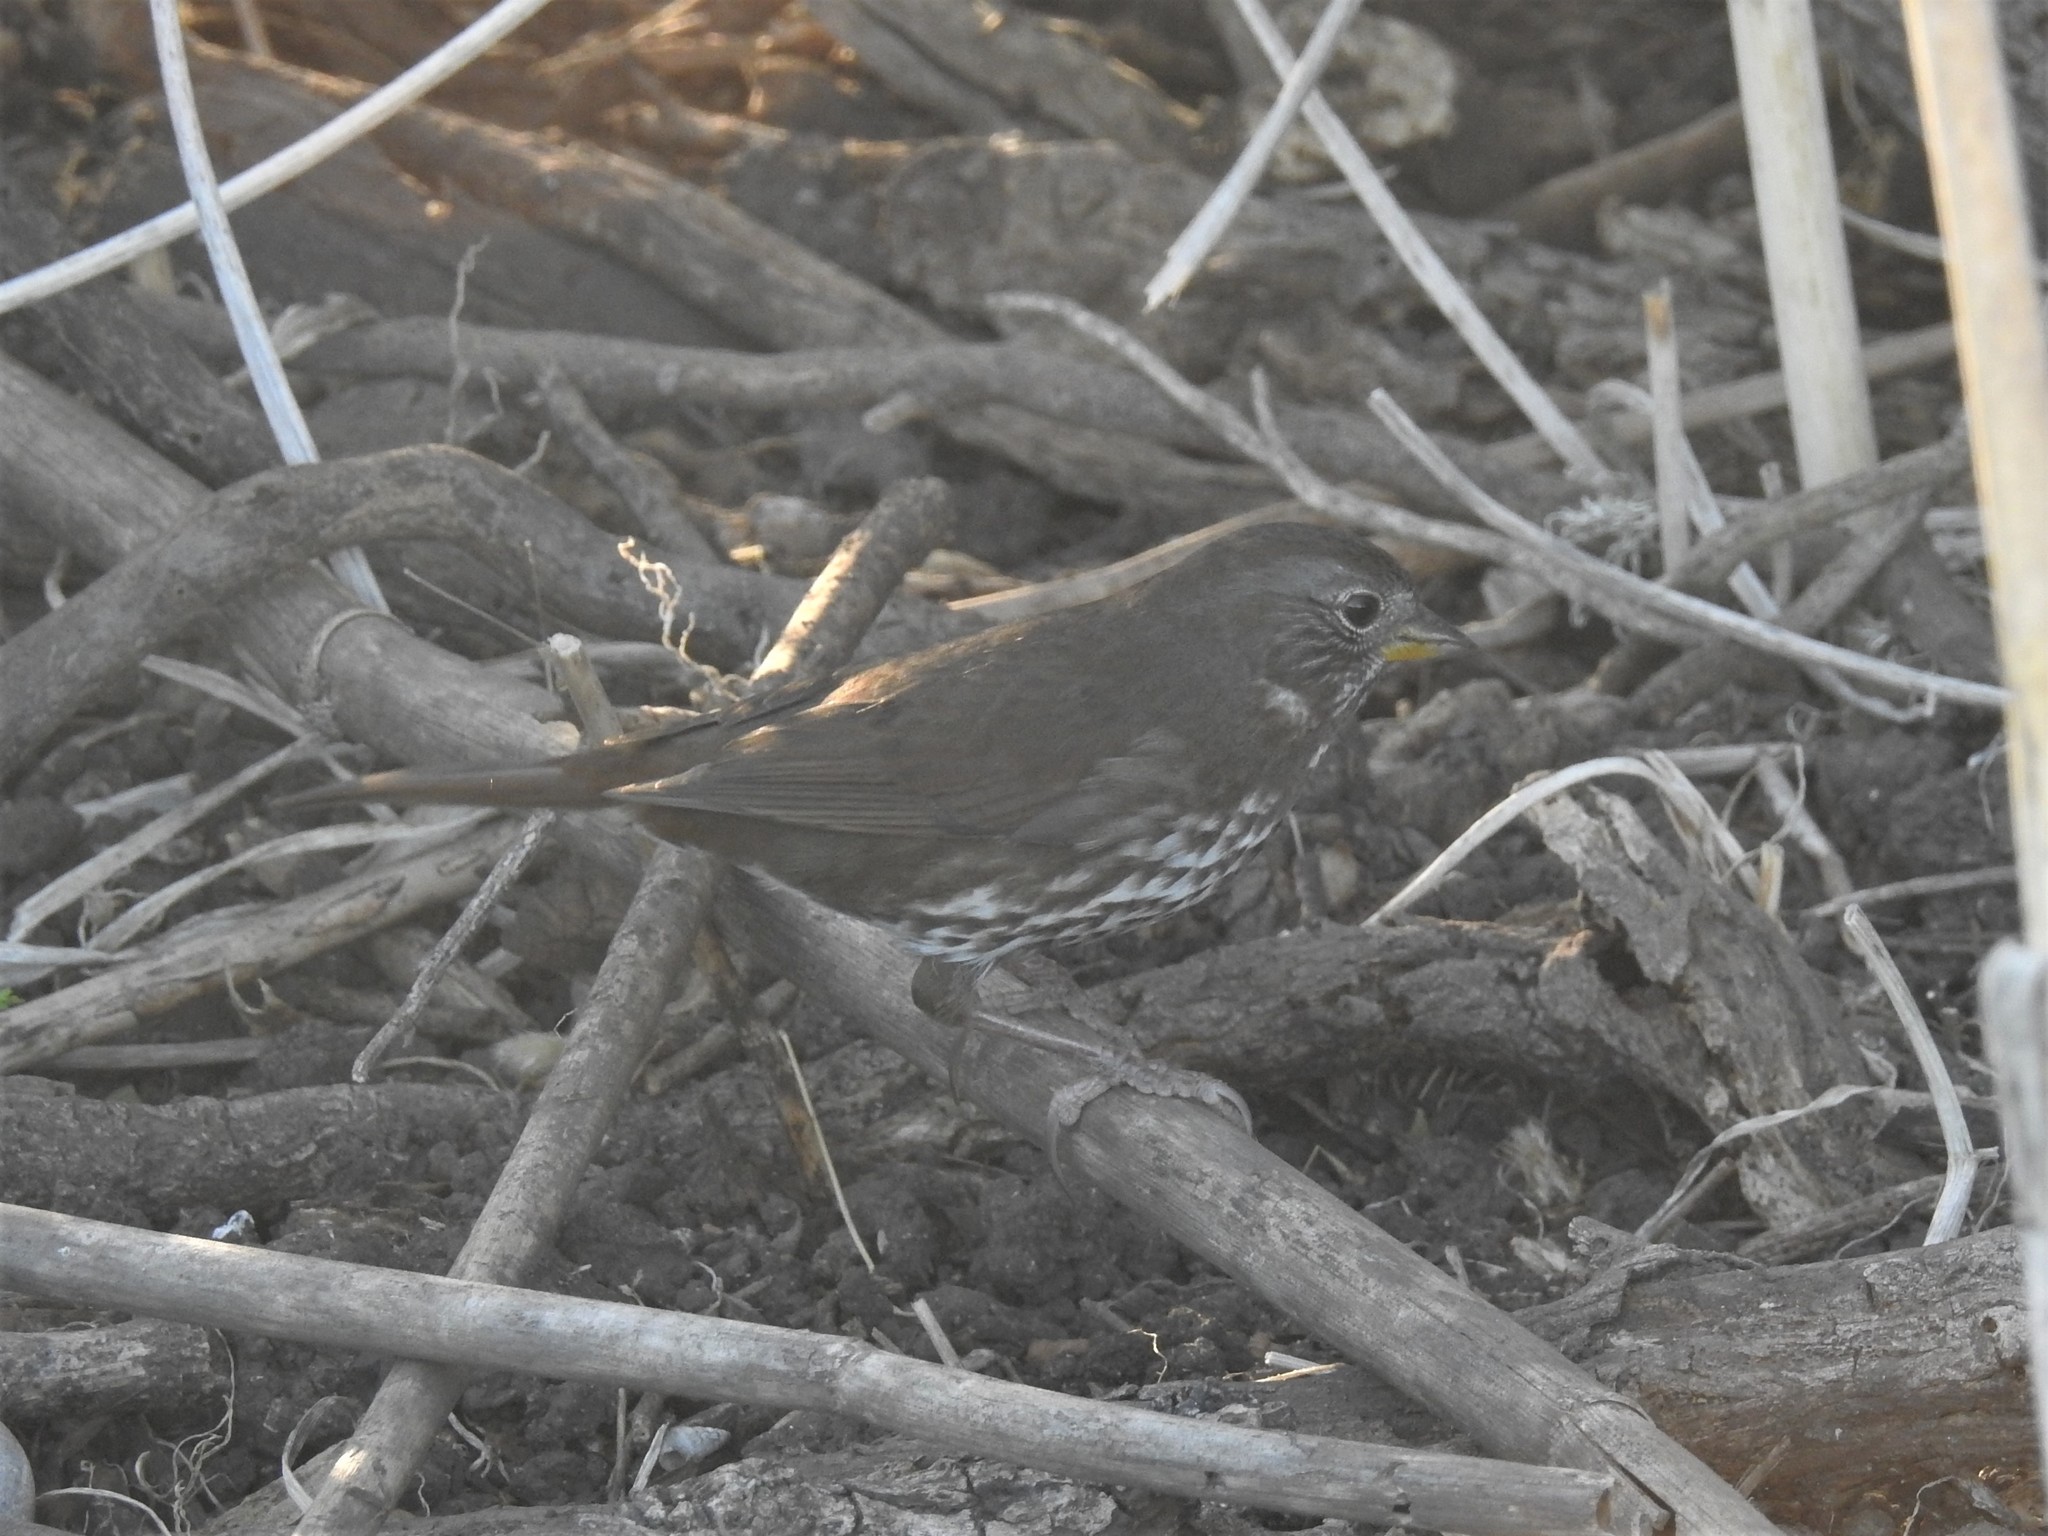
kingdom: Animalia
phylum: Chordata
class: Aves
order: Passeriformes
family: Passerellidae
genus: Passerella
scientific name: Passerella iliaca
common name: Fox sparrow
